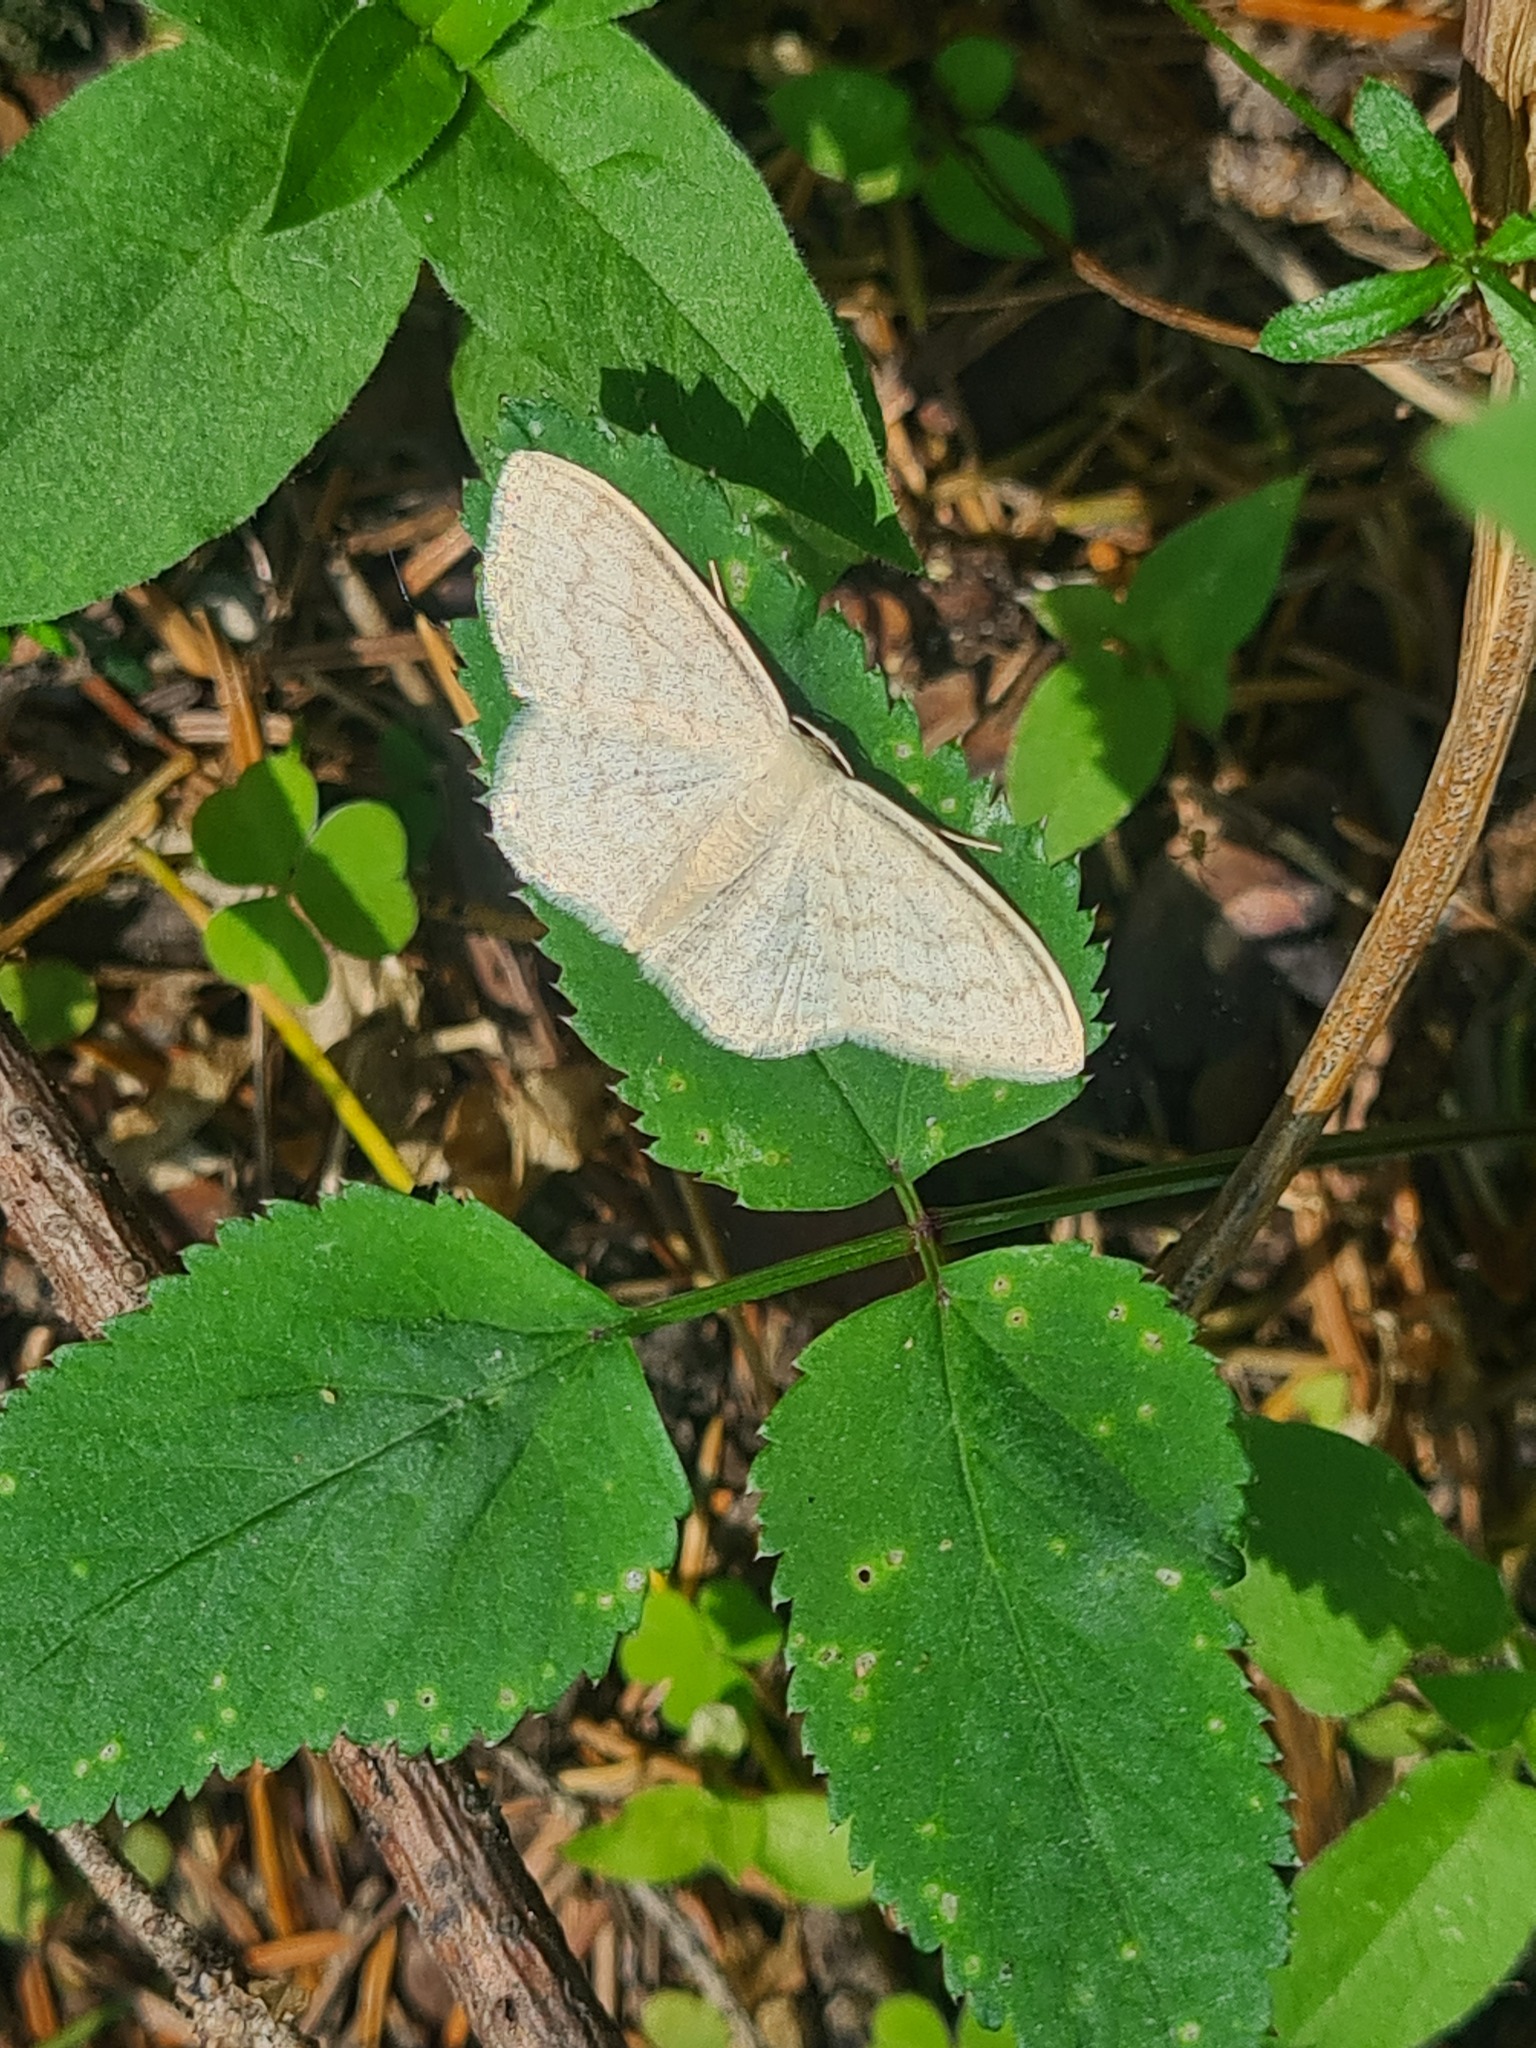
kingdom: Animalia
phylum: Arthropoda
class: Insecta
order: Lepidoptera
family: Geometridae
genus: Scopula
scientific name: Scopula floslactata
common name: Cream wave
